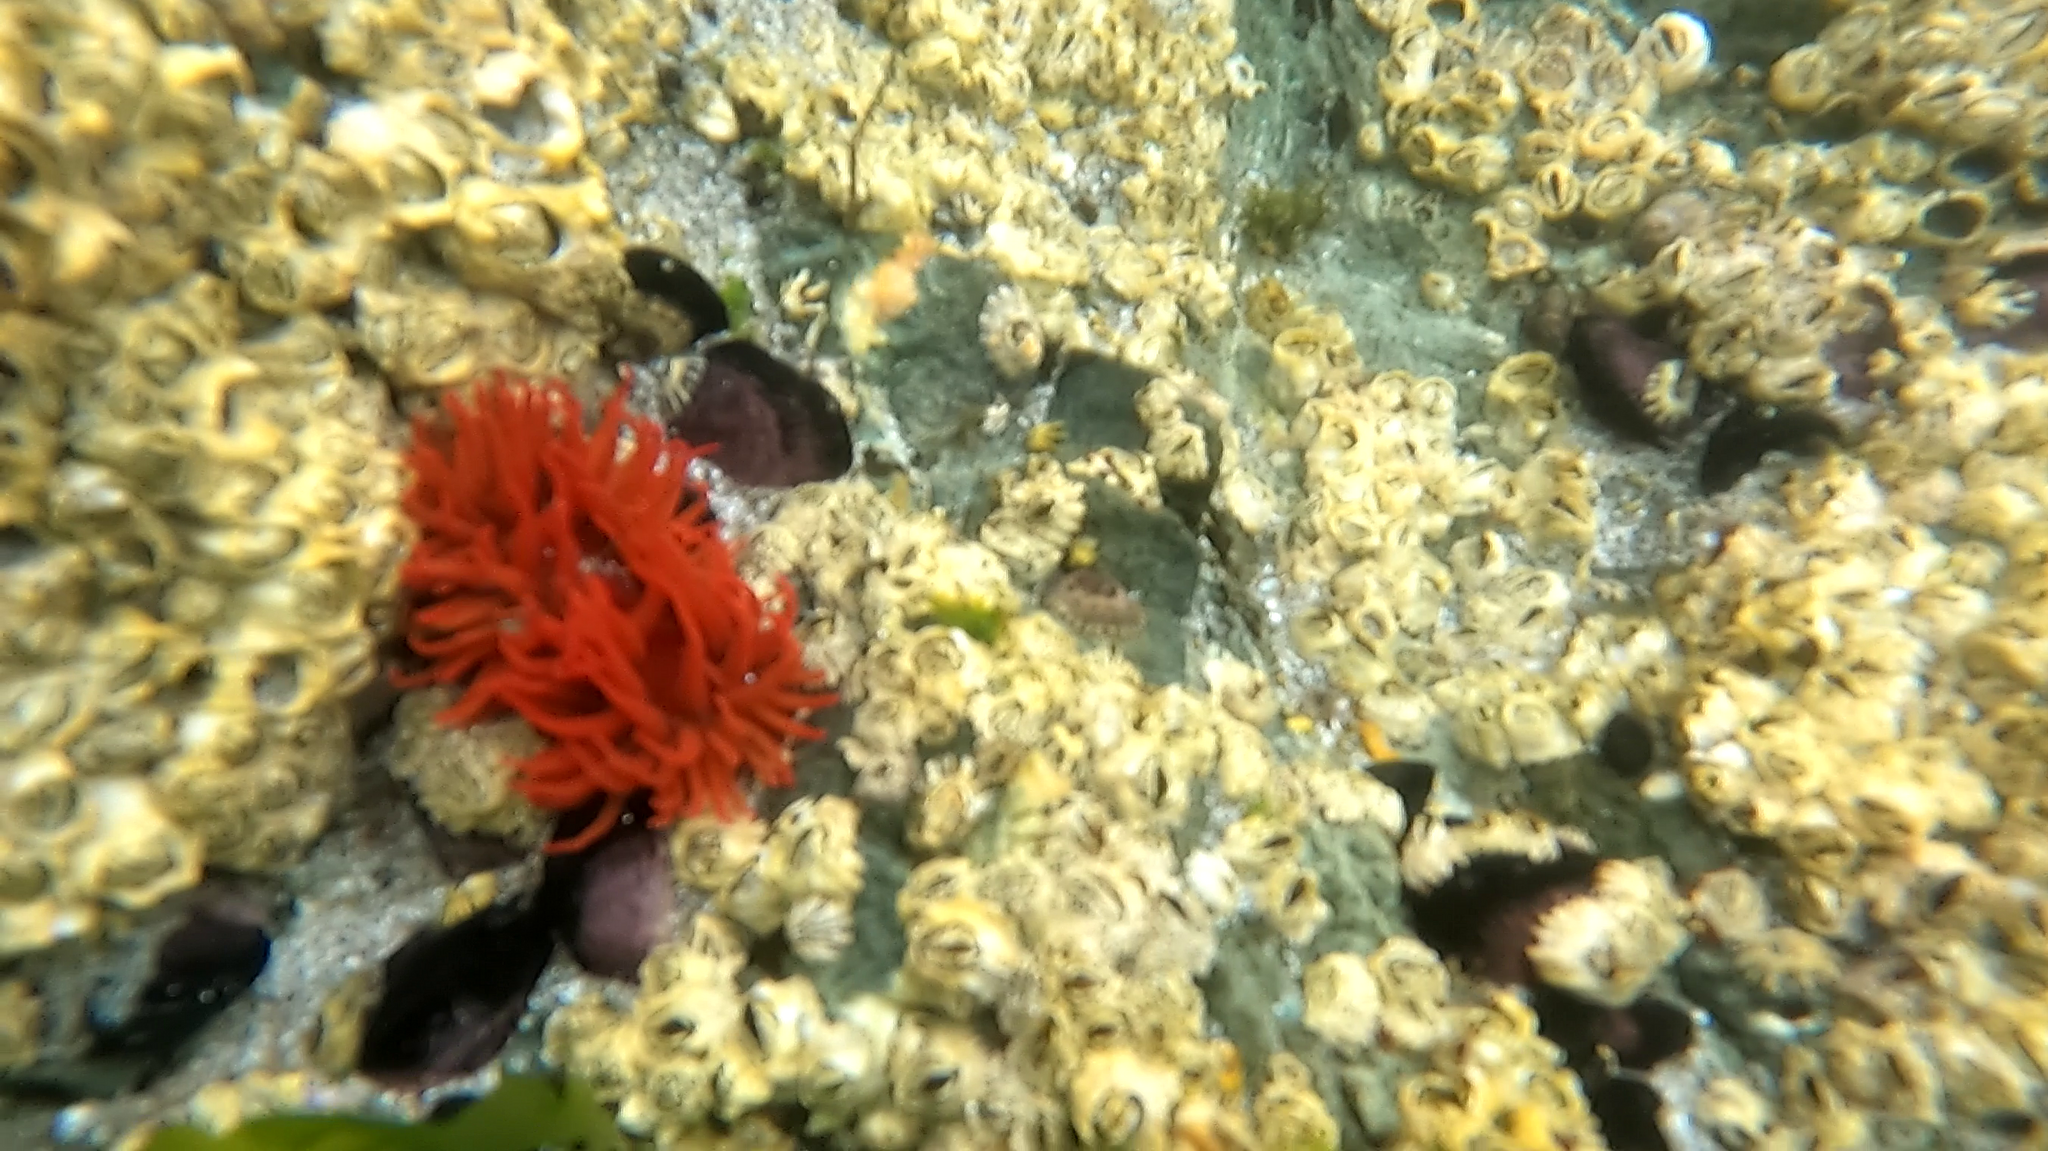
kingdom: Animalia
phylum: Cnidaria
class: Anthozoa
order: Actiniaria
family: Actiniidae
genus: Anemonia
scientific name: Anemonia alicemartinae
